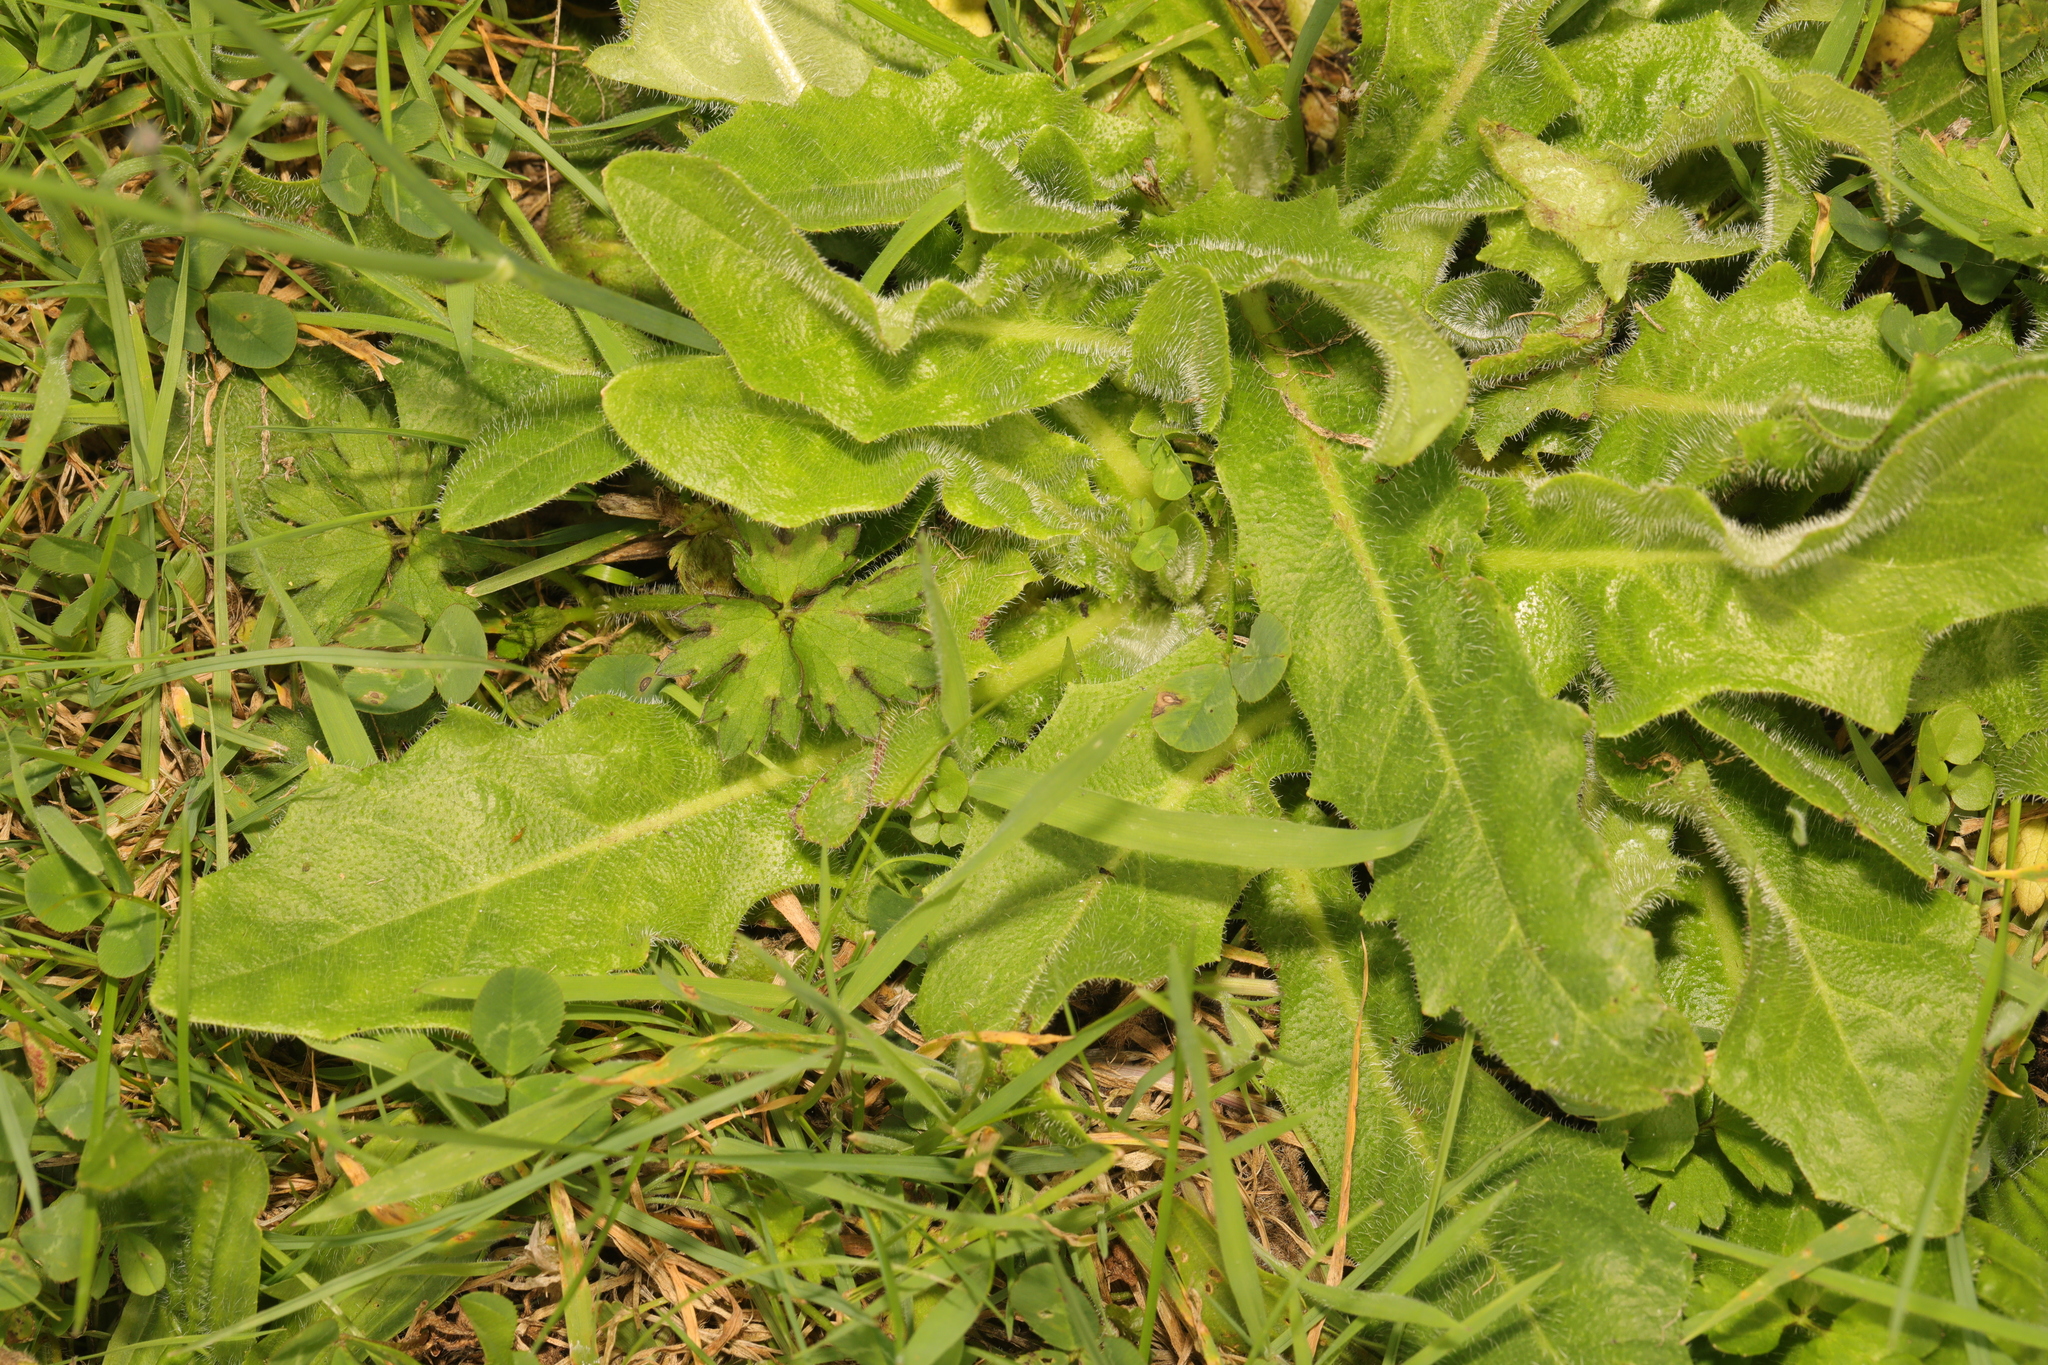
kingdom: Plantae
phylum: Tracheophyta
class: Magnoliopsida
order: Asterales
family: Asteraceae
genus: Hypochaeris
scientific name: Hypochaeris radicata
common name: Flatweed
